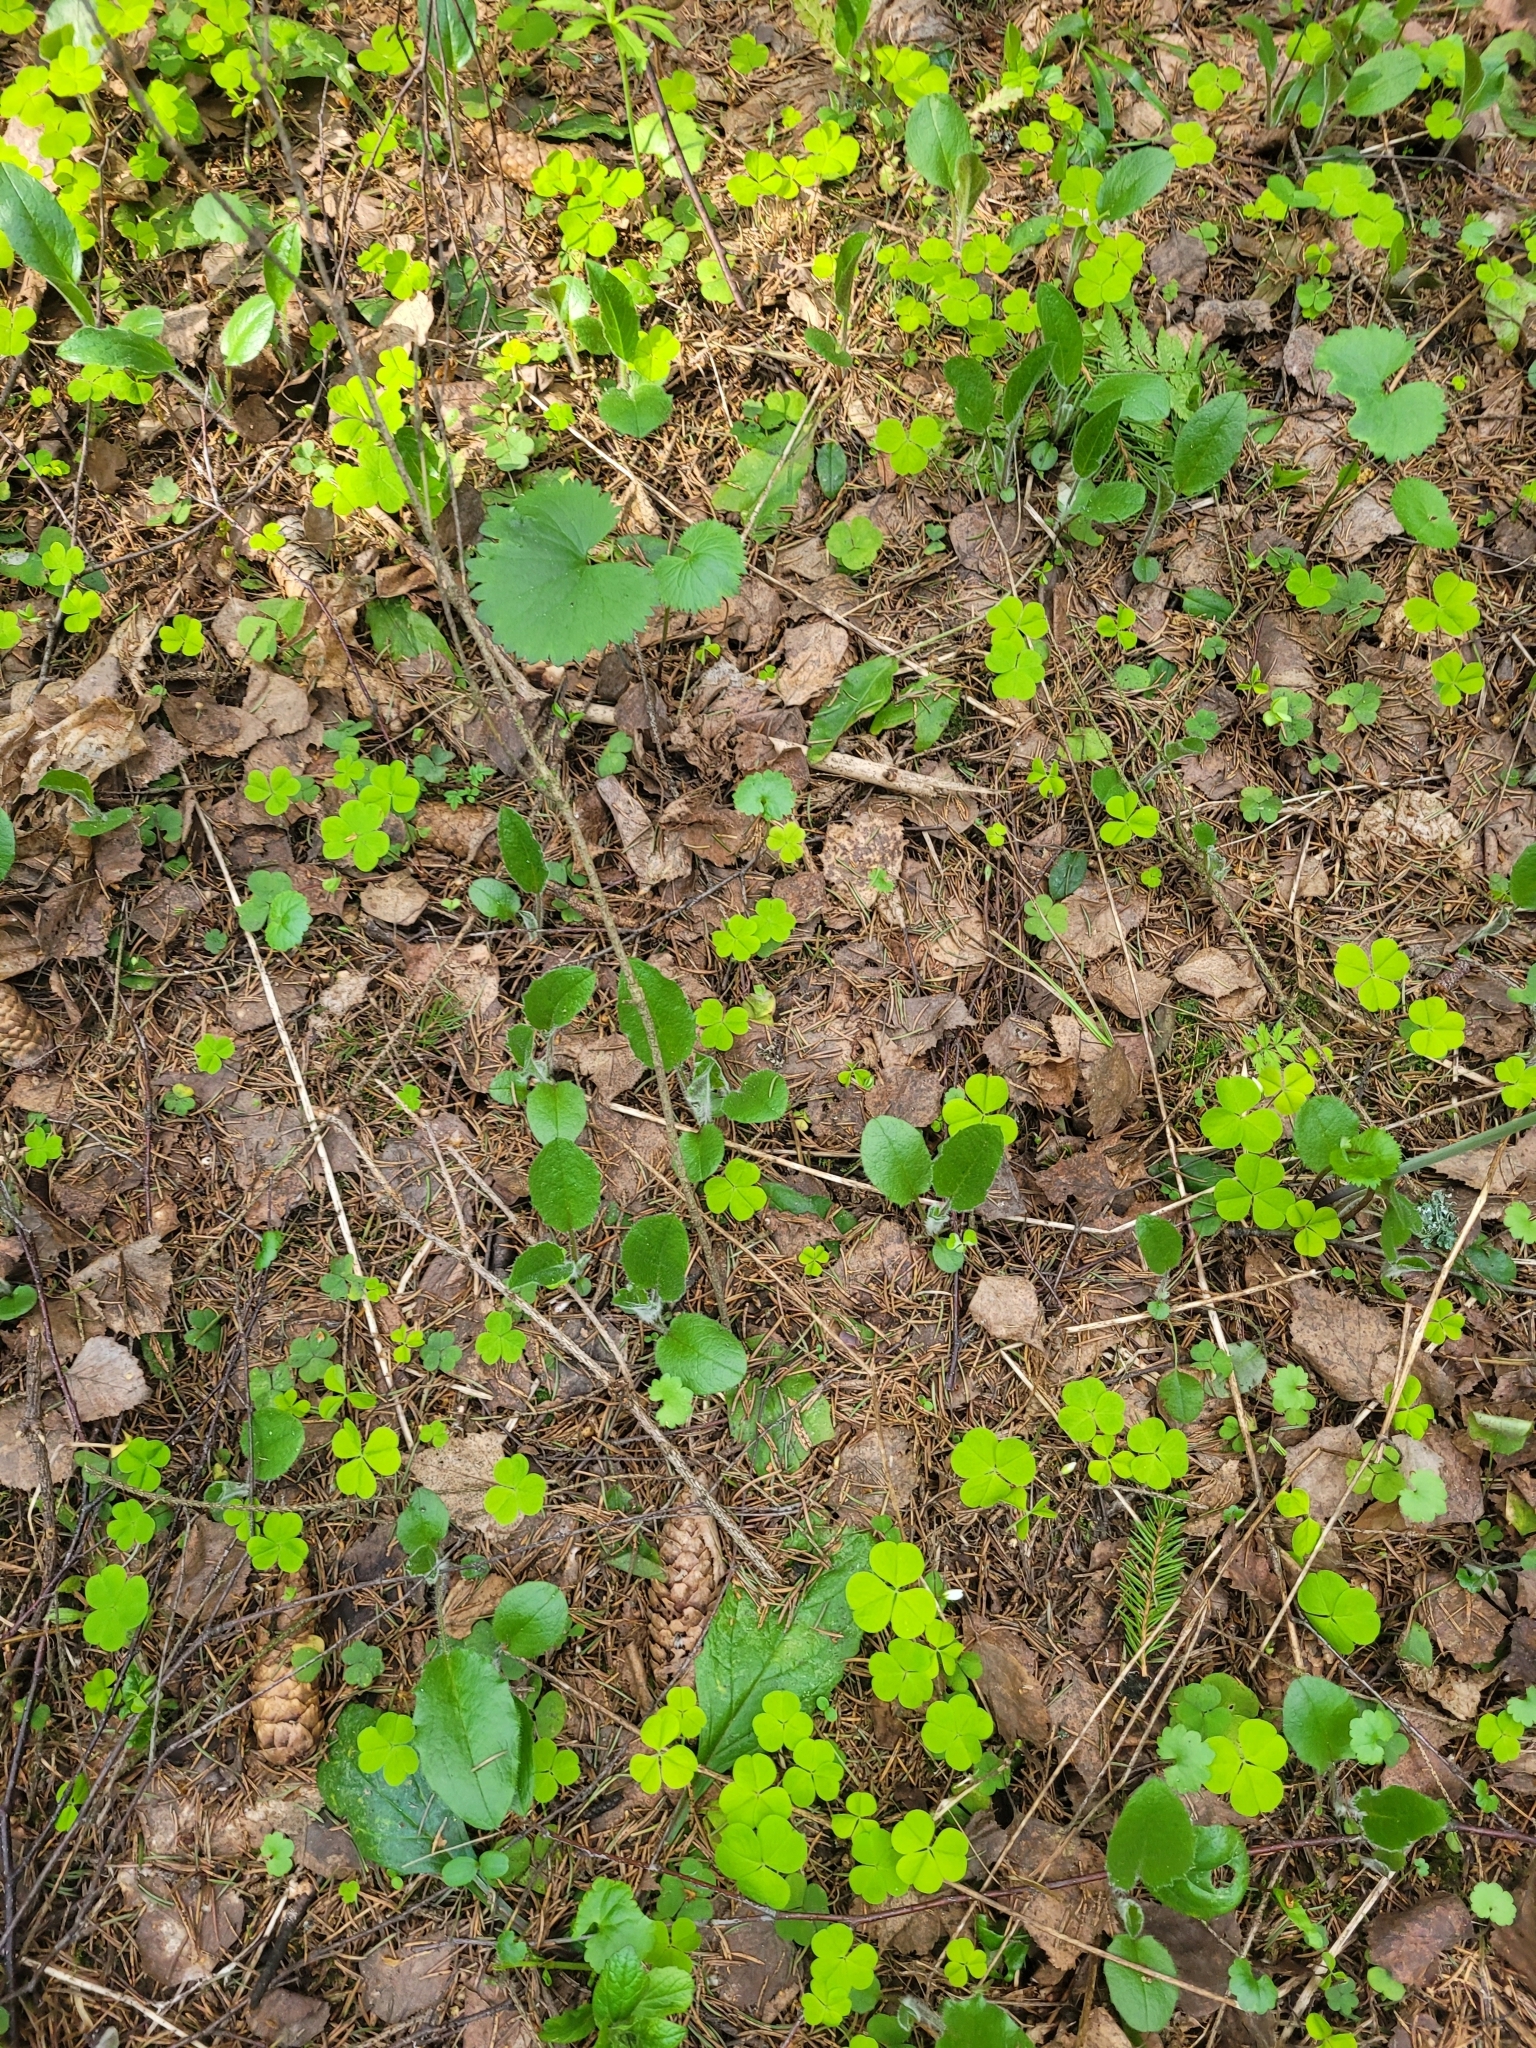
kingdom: Plantae
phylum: Tracheophyta
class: Magnoliopsida
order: Asterales
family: Asteraceae
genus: Hieracium
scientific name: Hieracium murorum
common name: Wall hawkweed
